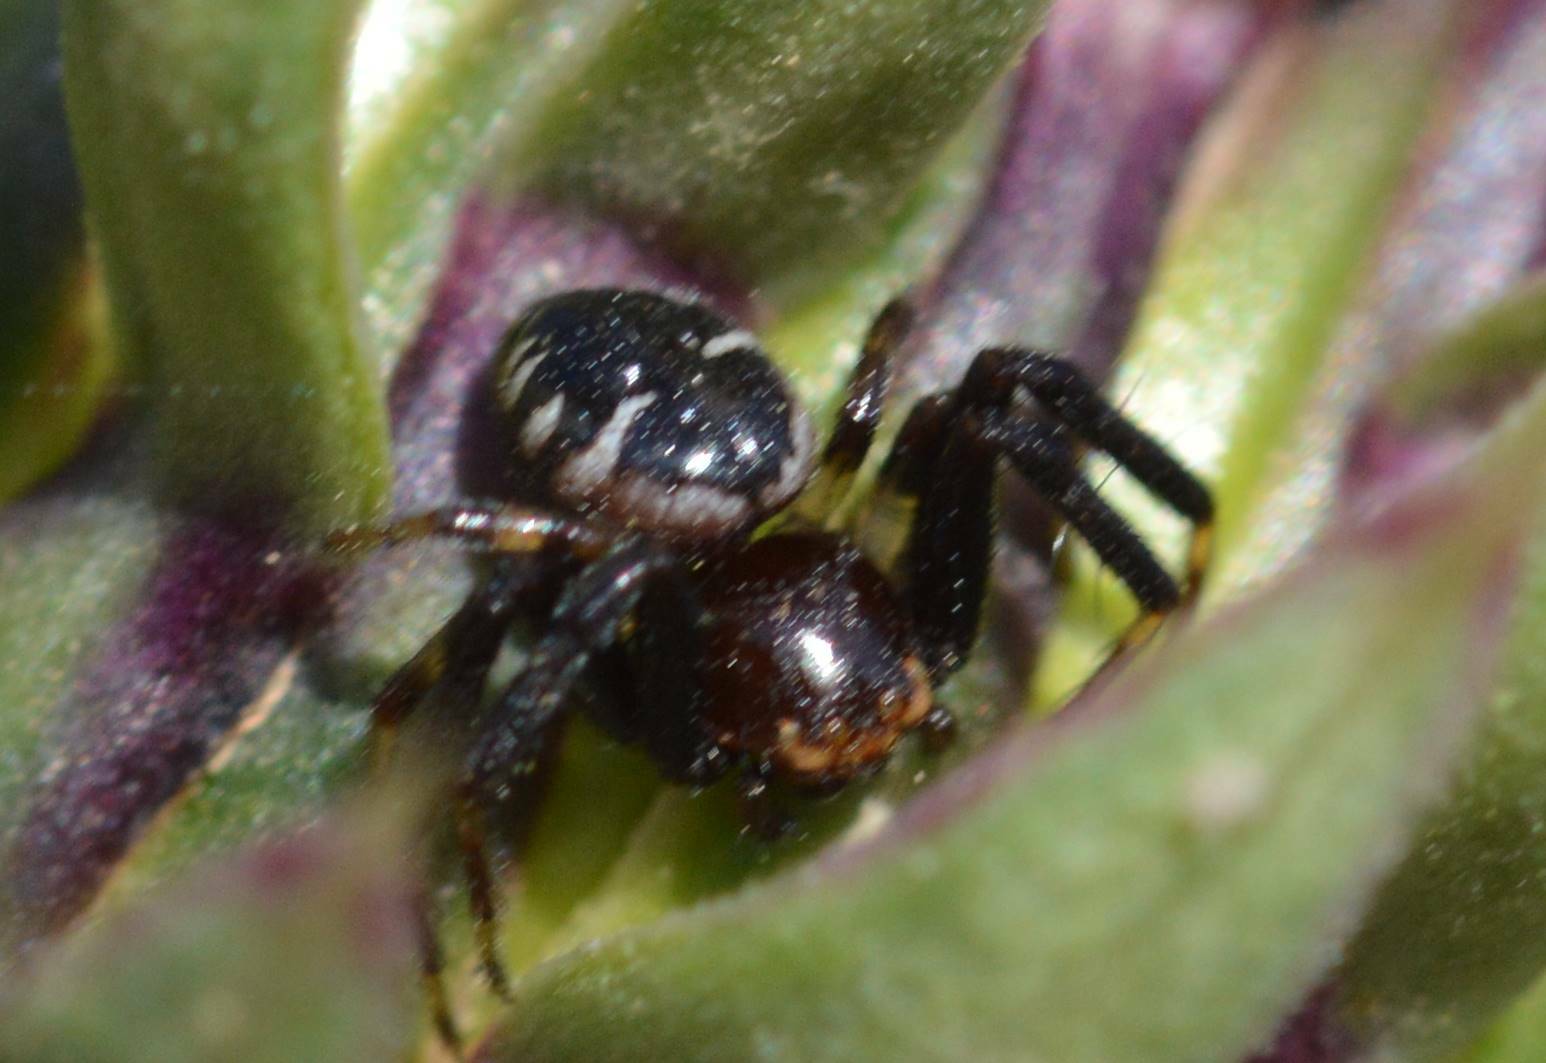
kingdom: Animalia
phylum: Arthropoda
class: Arachnida
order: Araneae
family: Thomisidae
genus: Synema
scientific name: Synema globosum
